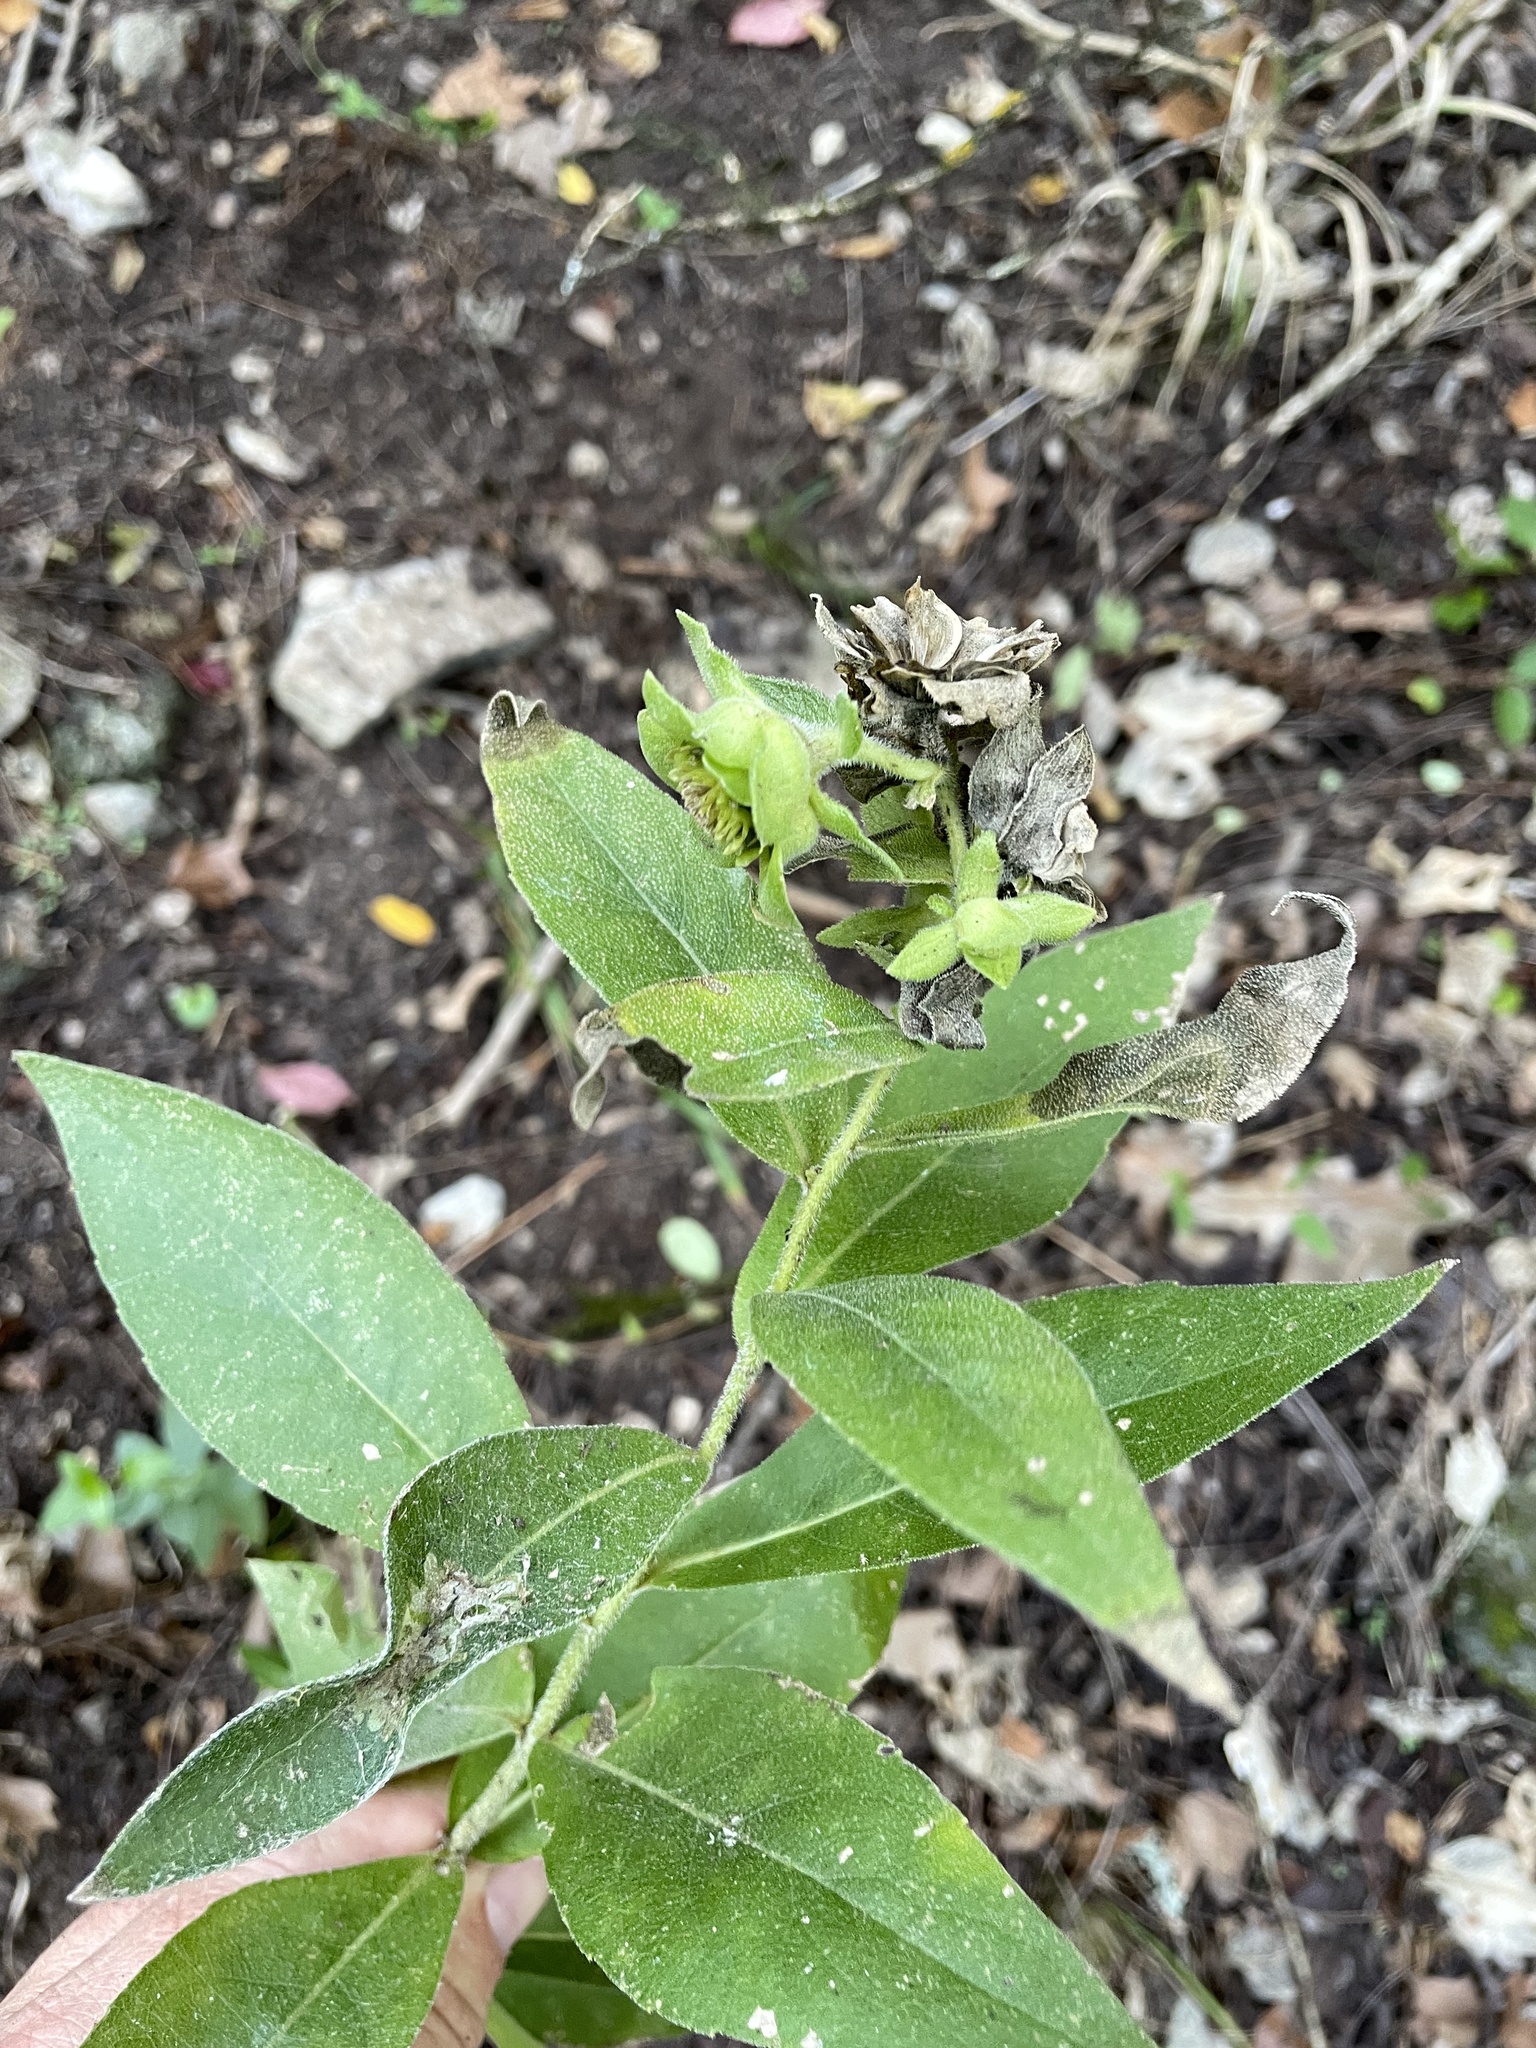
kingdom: Plantae
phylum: Tracheophyta
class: Magnoliopsida
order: Asterales
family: Asteraceae
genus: Silphium
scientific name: Silphium radula
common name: Roughleaf rosinweed
